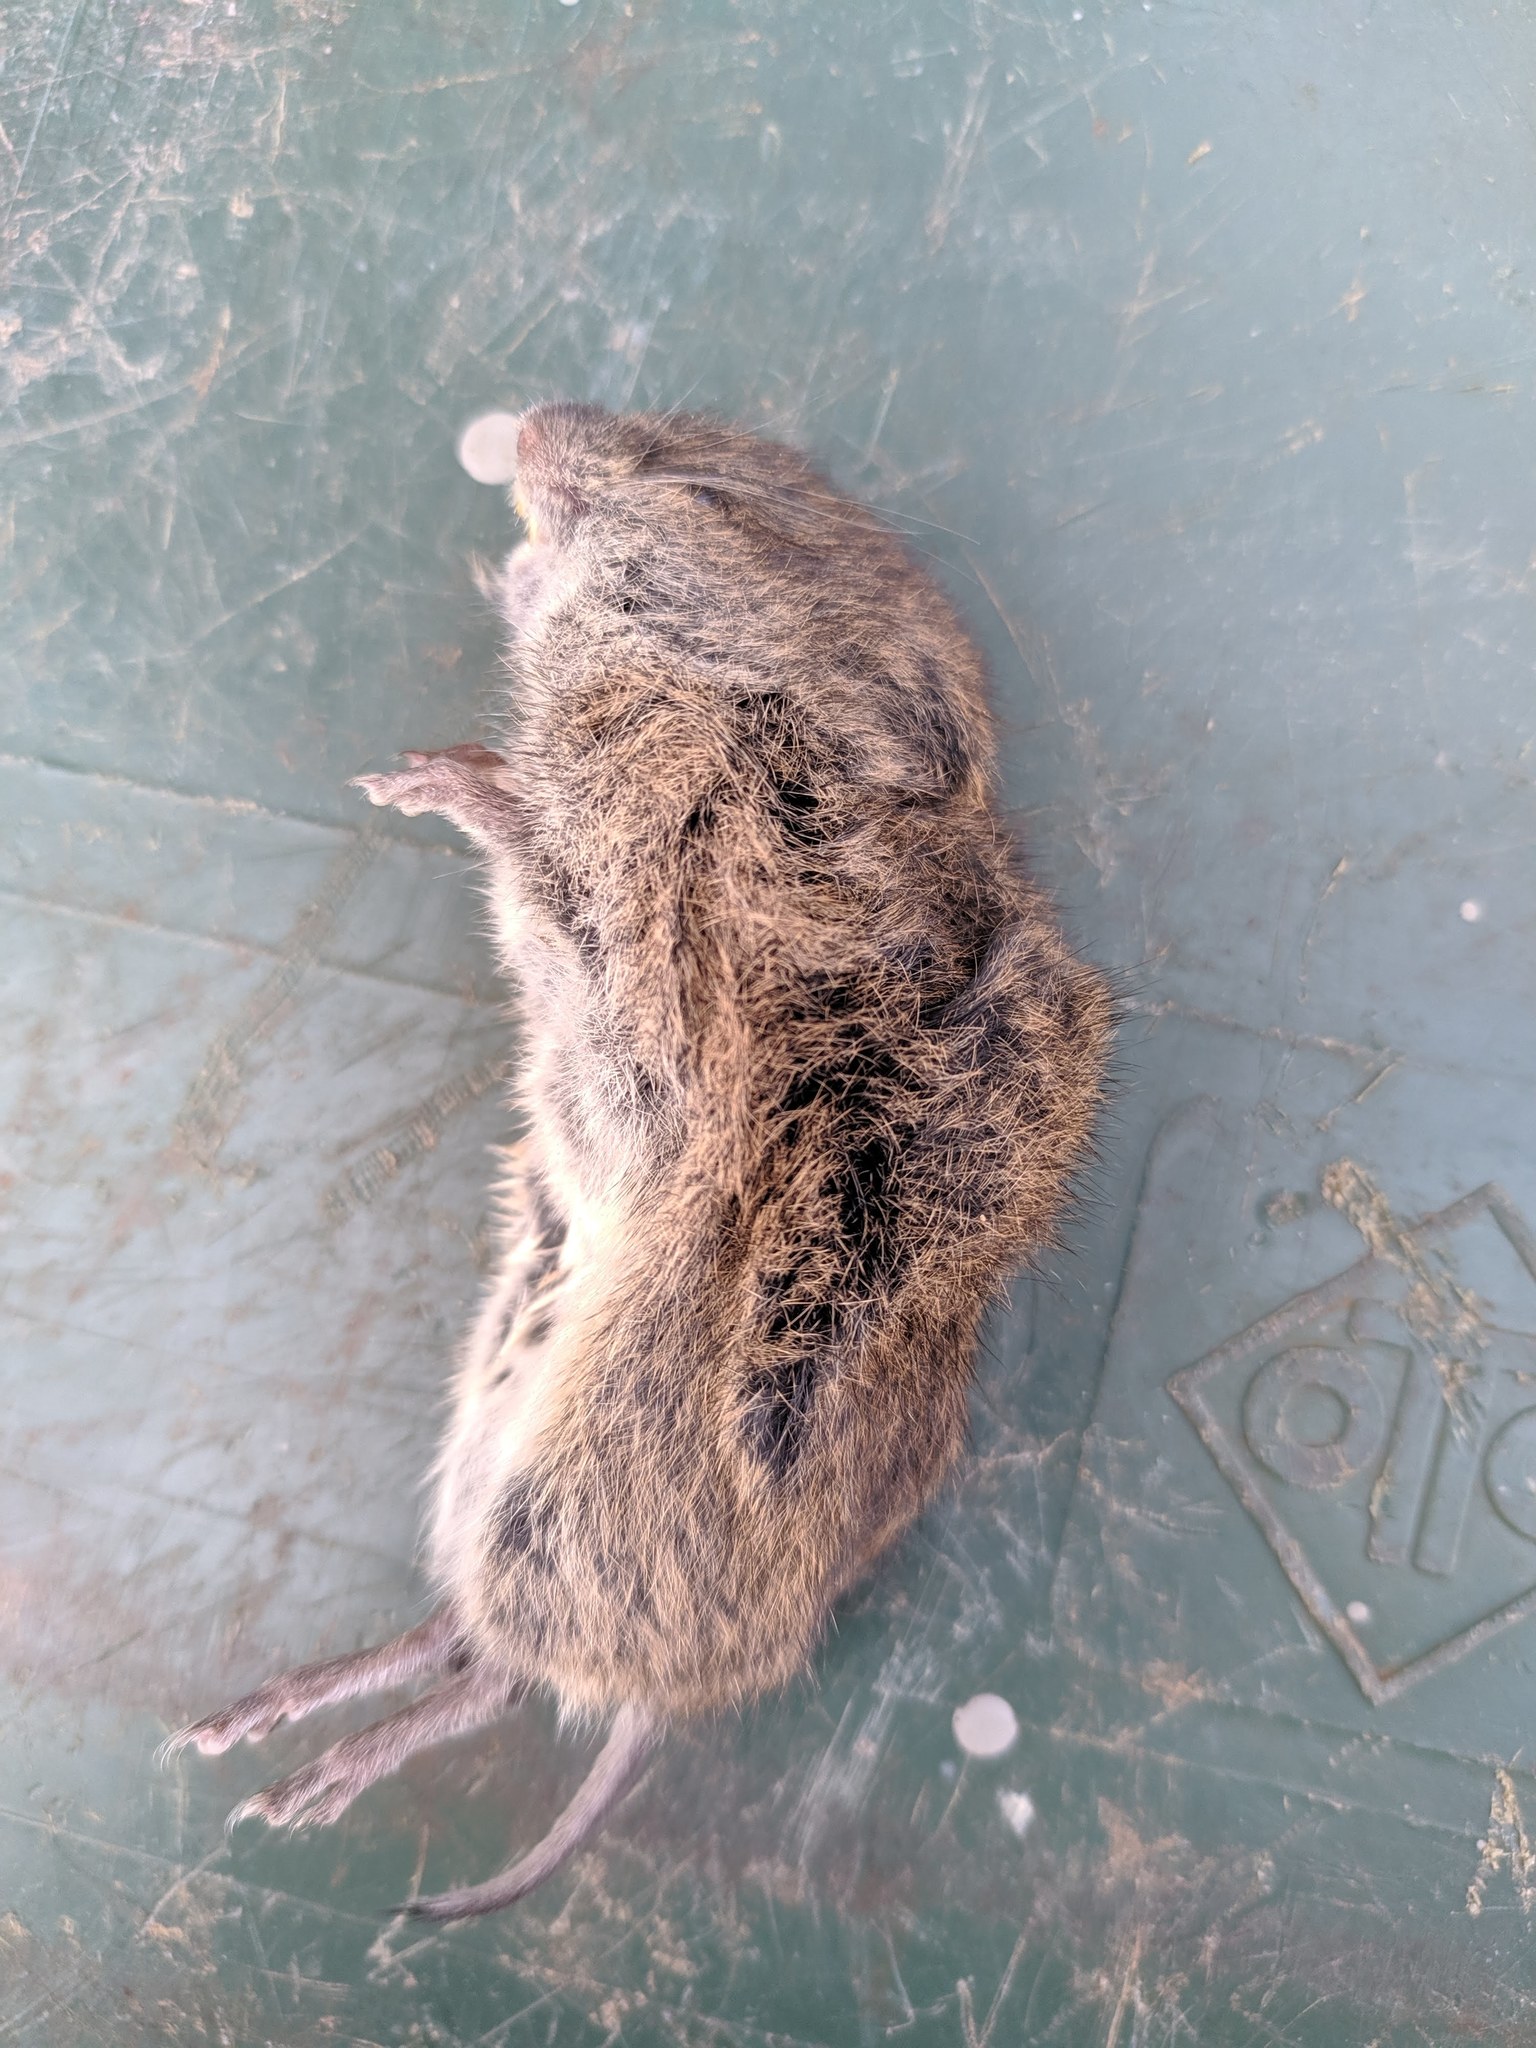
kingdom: Animalia
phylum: Chordata
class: Mammalia
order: Rodentia
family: Cricetidae
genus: Microtus
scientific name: Microtus agrestis
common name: Field vole
